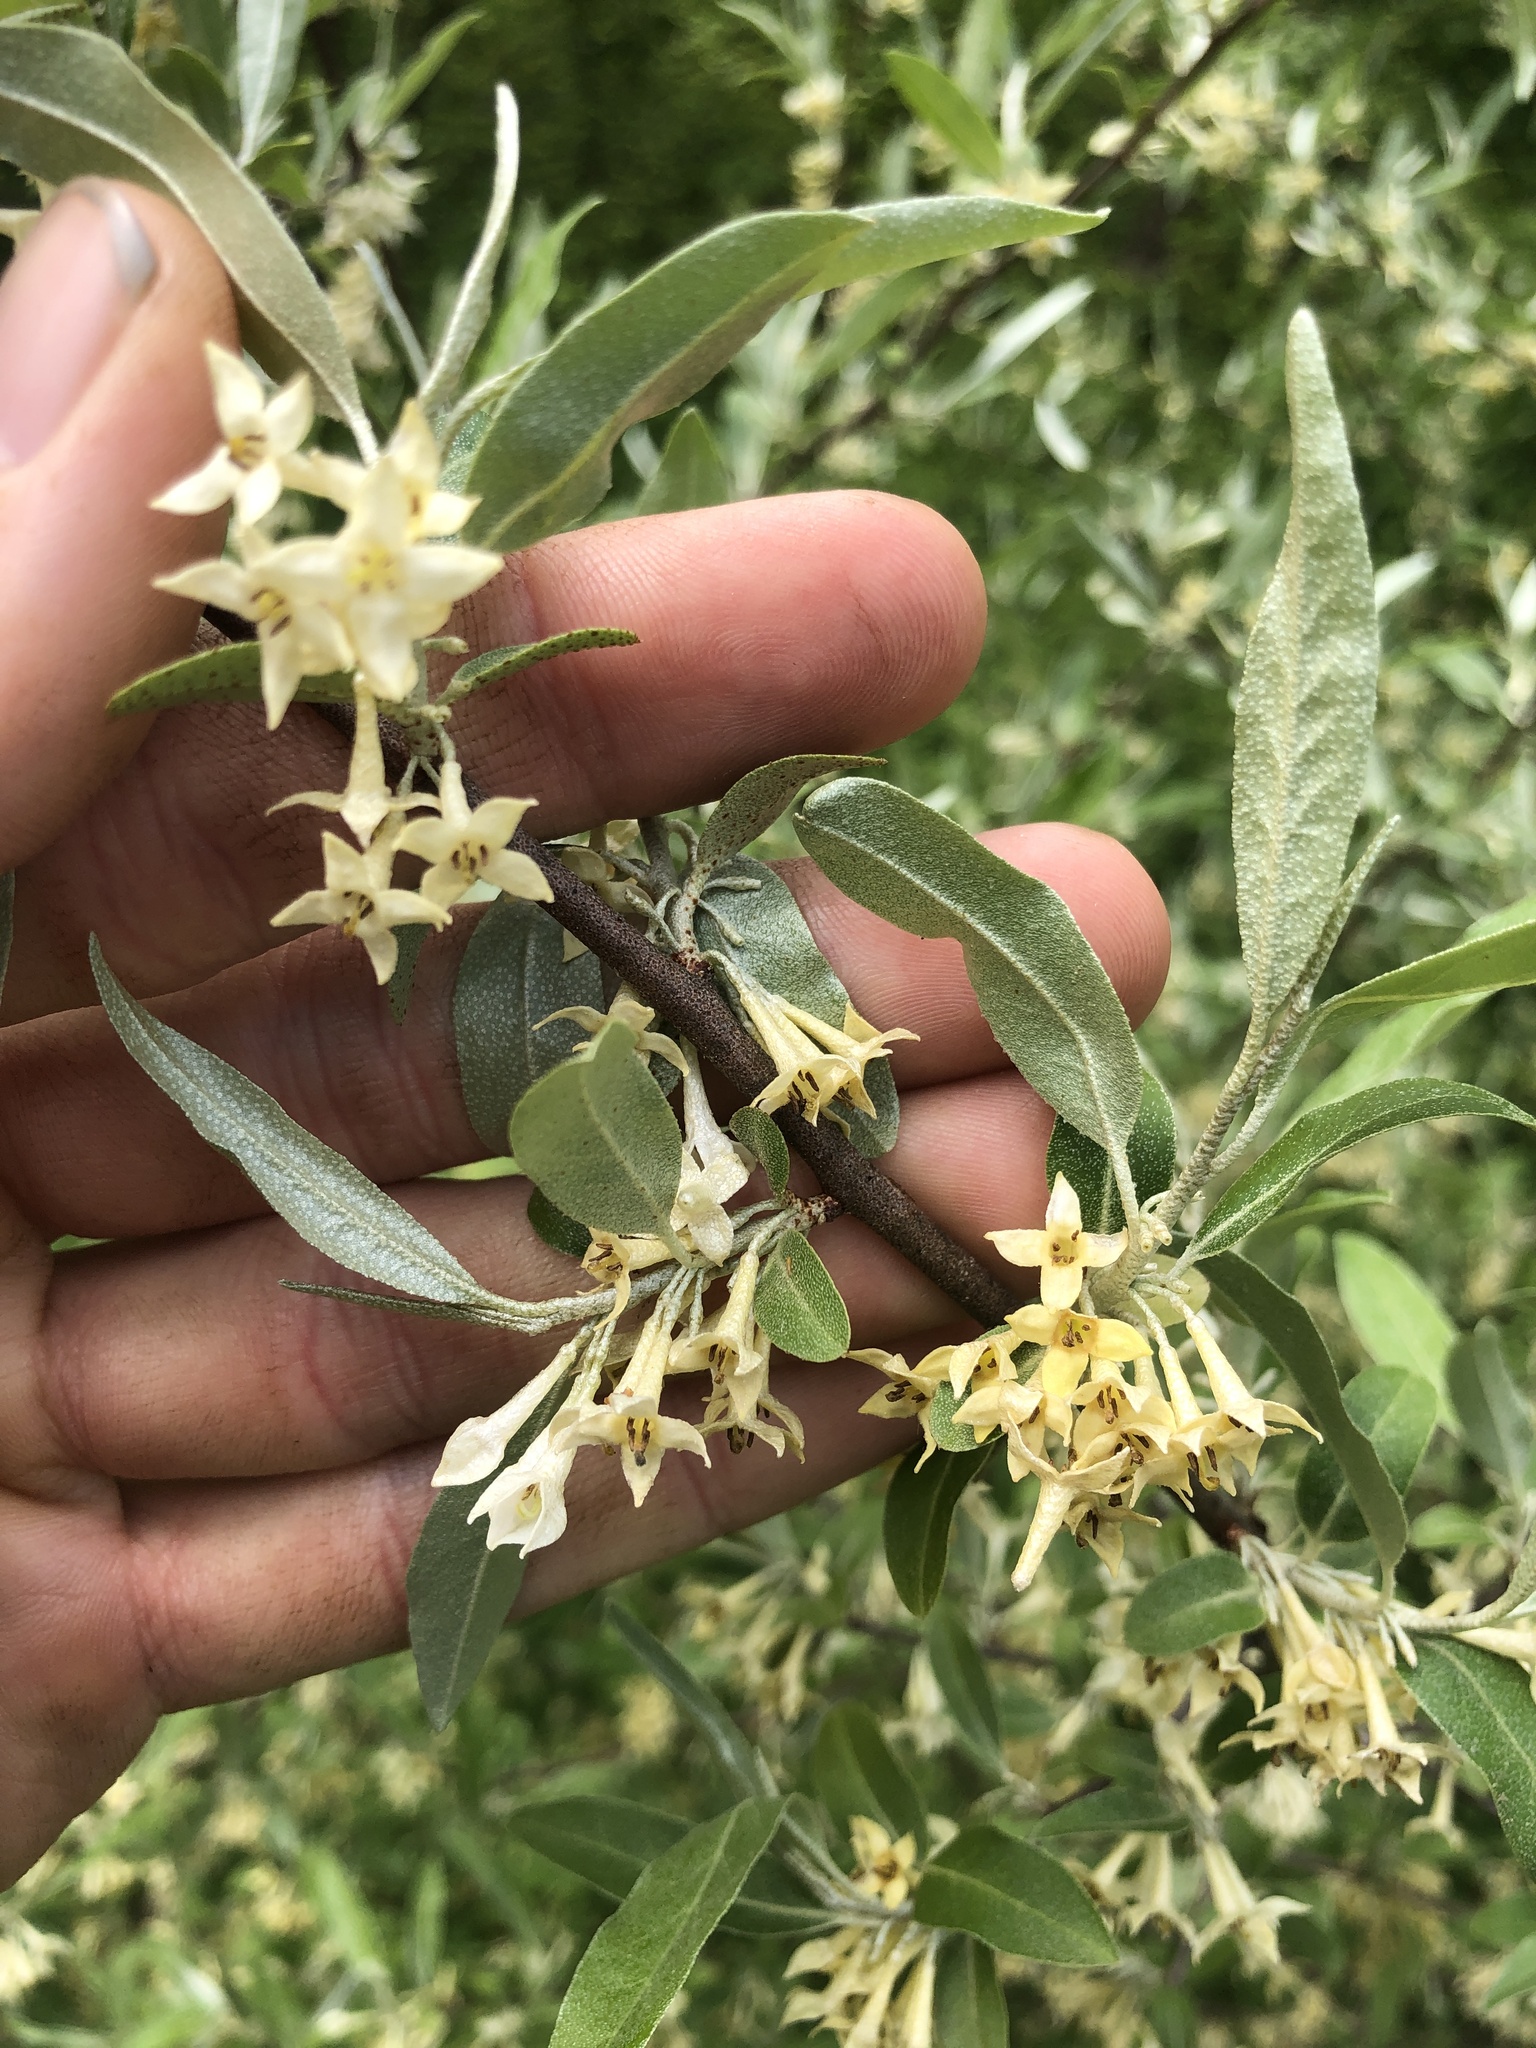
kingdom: Plantae
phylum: Tracheophyta
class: Magnoliopsida
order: Rosales
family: Elaeagnaceae
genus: Elaeagnus
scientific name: Elaeagnus umbellata
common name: Autumn olive
